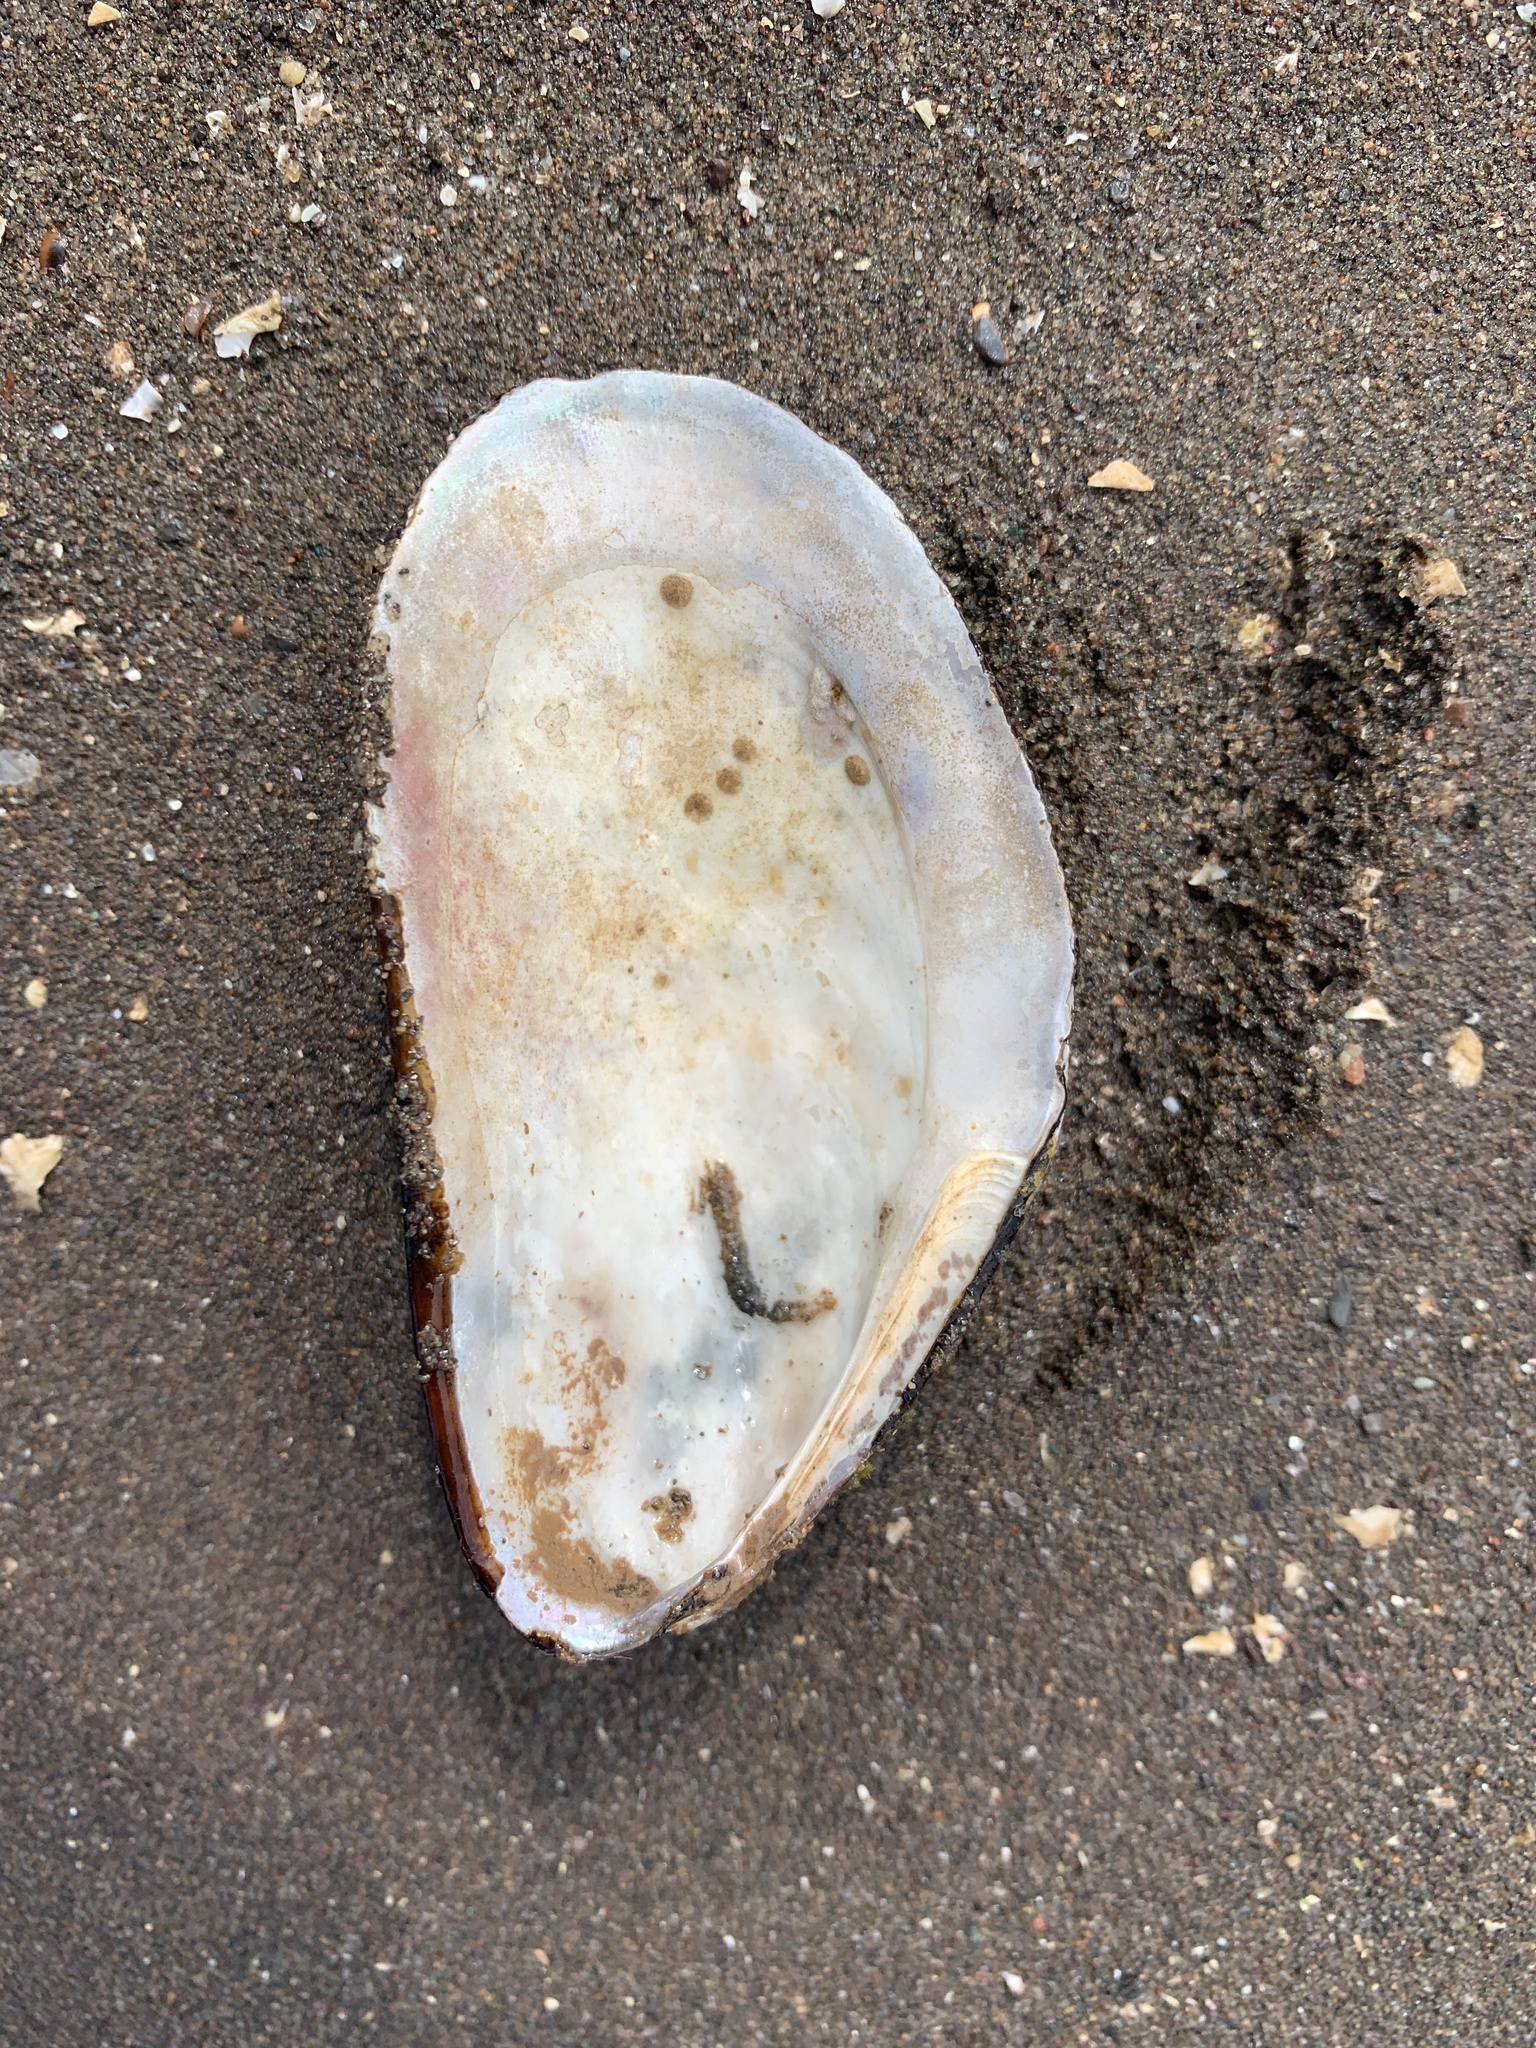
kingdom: Animalia
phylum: Mollusca
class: Bivalvia
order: Mytilida
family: Mytilidae
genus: Modiolus
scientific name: Modiolus modiolus
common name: Horse-mussel
